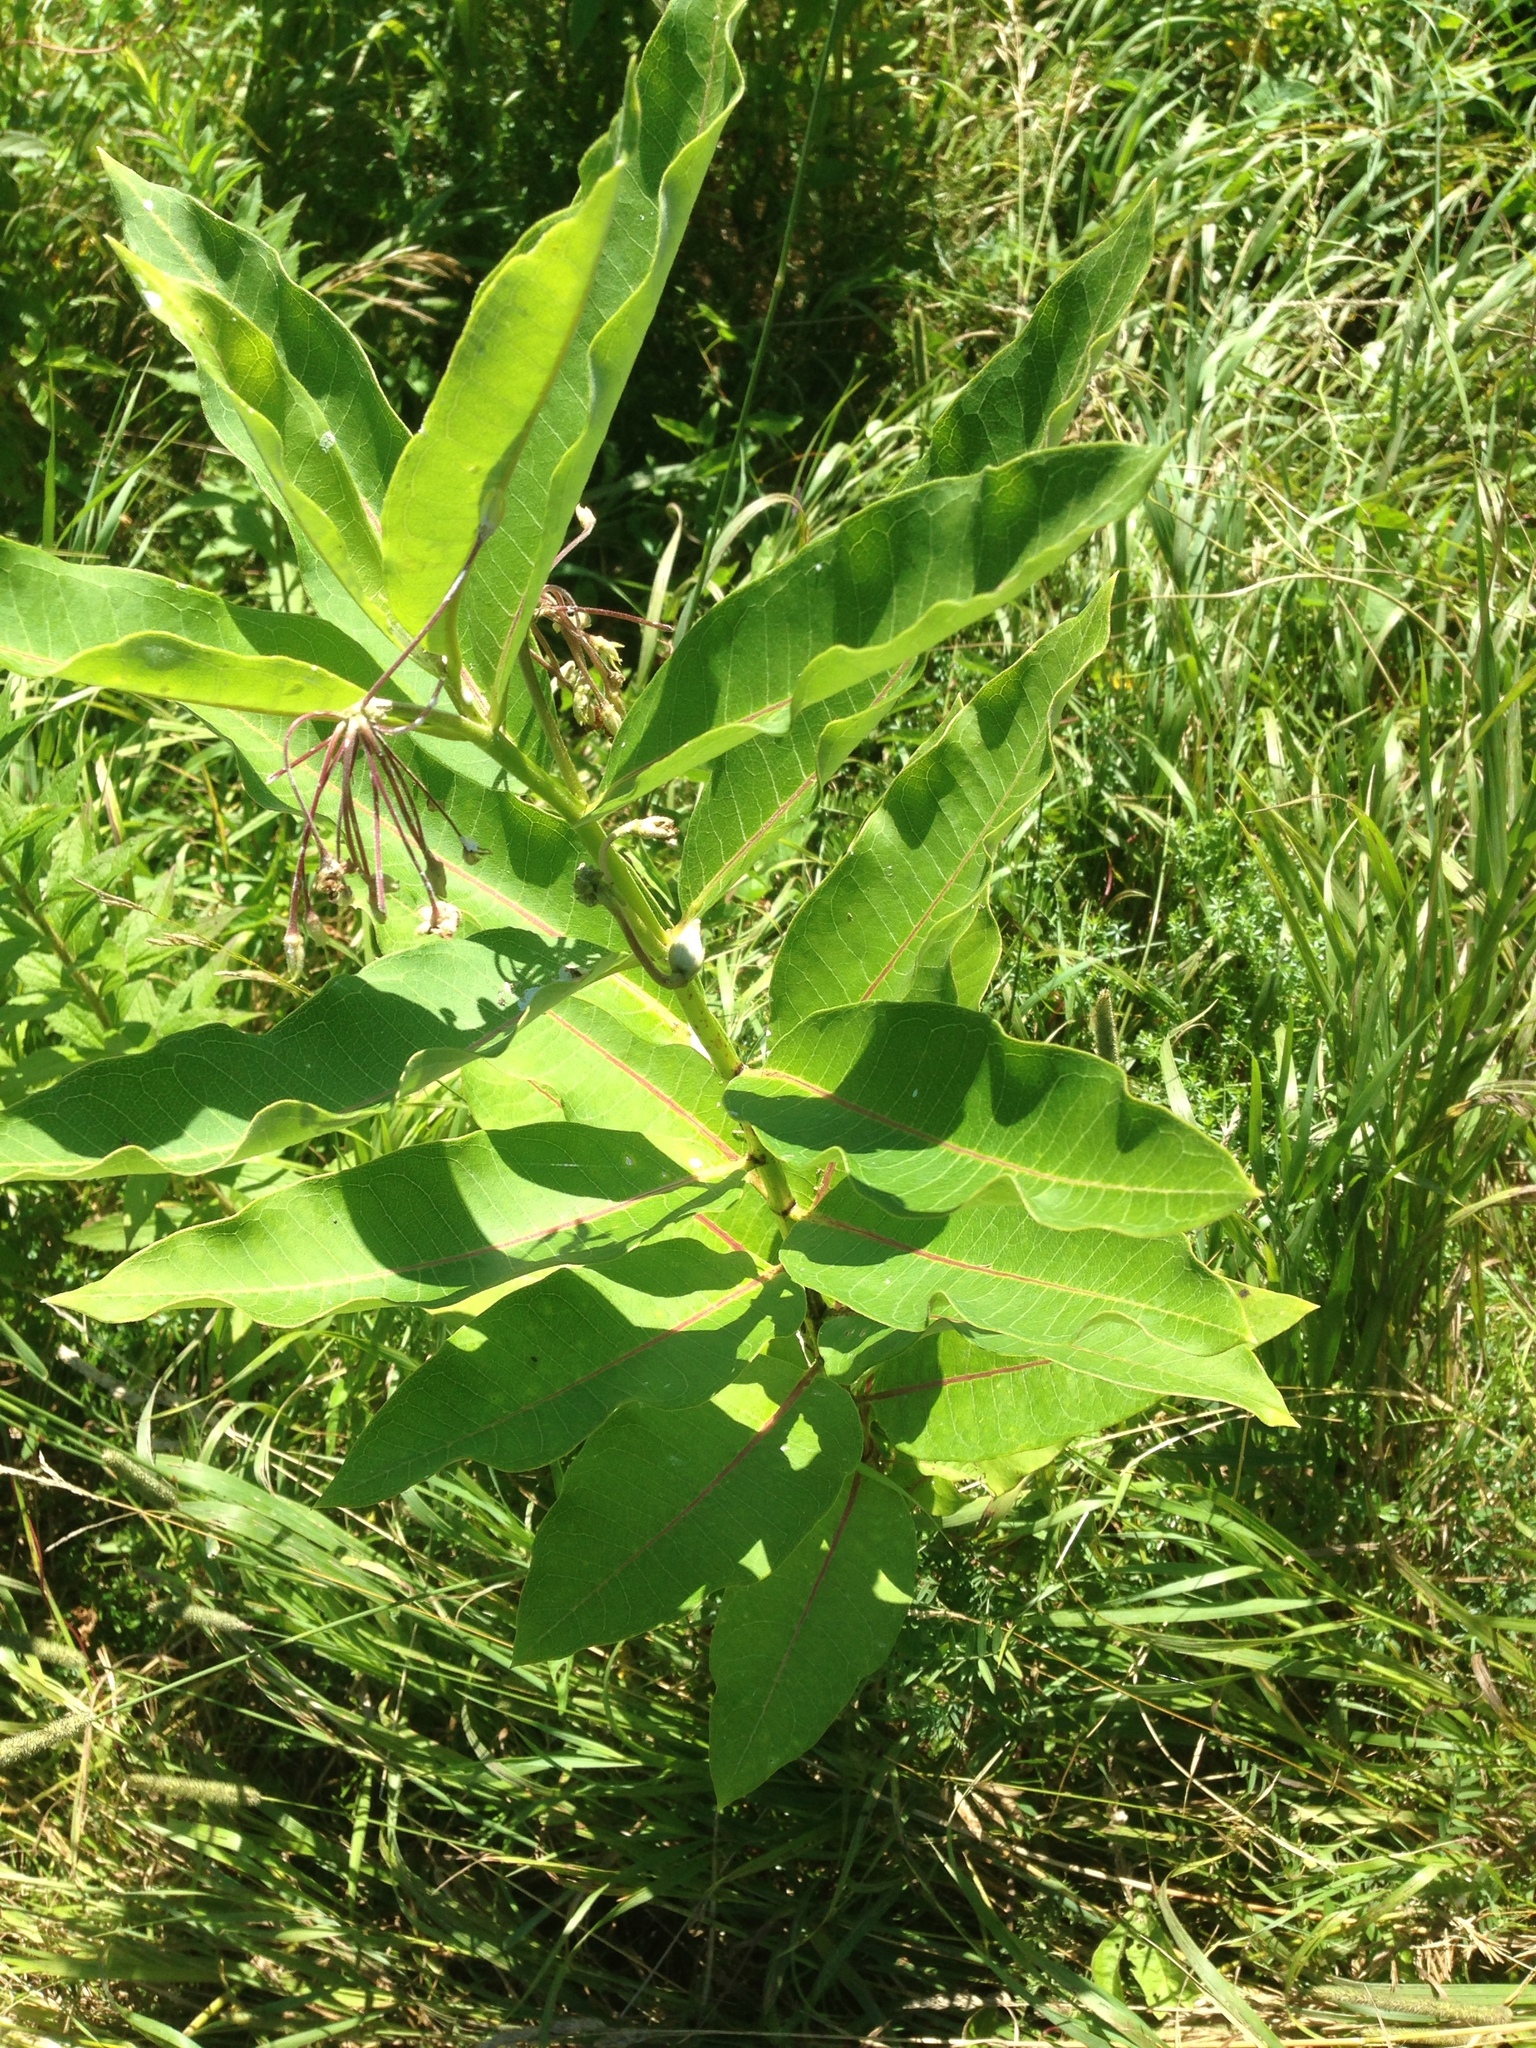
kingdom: Plantae
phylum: Tracheophyta
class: Magnoliopsida
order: Gentianales
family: Apocynaceae
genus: Asclepias
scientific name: Asclepias syriaca
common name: Common milkweed
